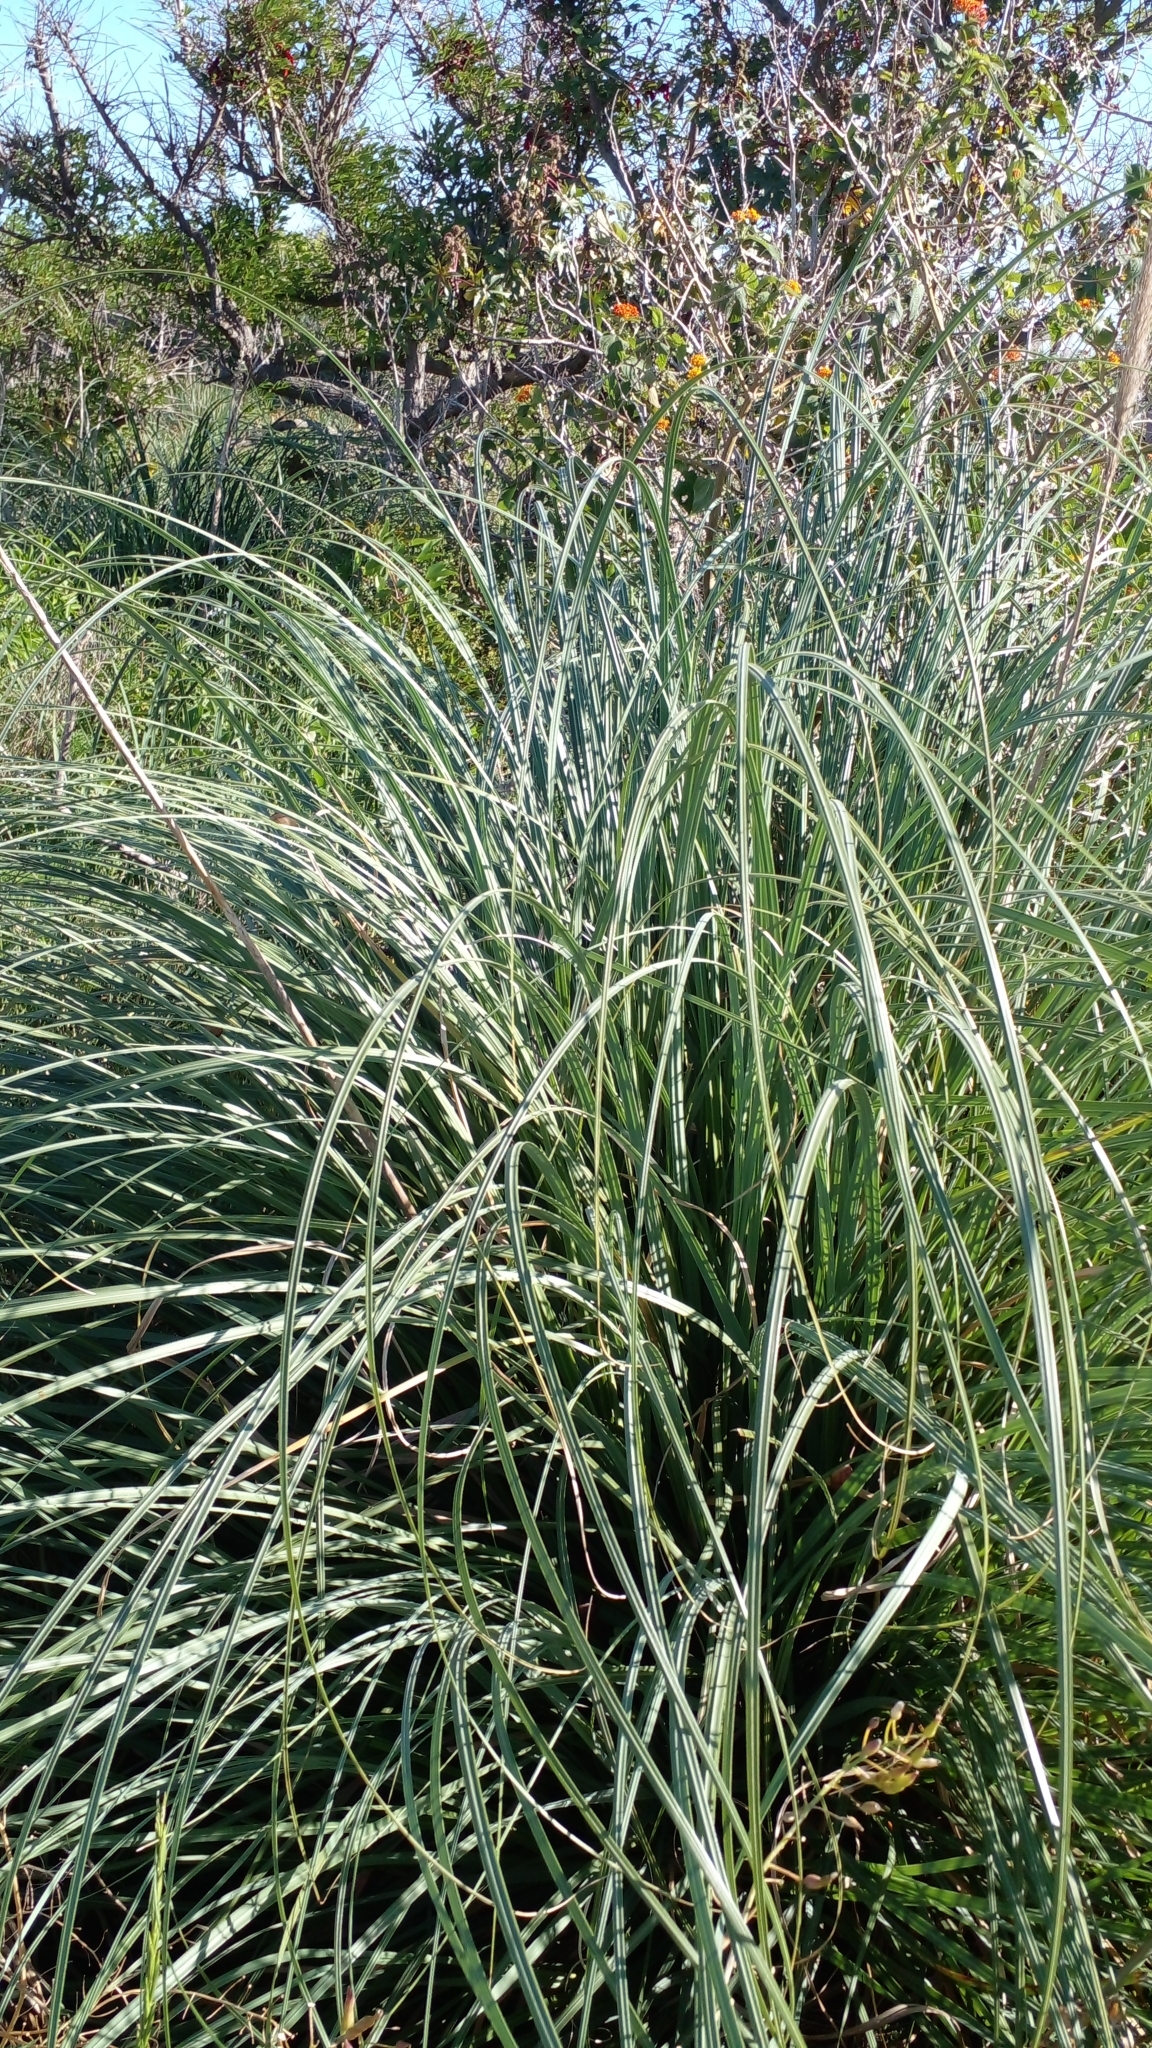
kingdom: Plantae
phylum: Tracheophyta
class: Liliopsida
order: Poales
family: Poaceae
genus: Cortaderia
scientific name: Cortaderia selloana
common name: Uruguayan pampas grass
